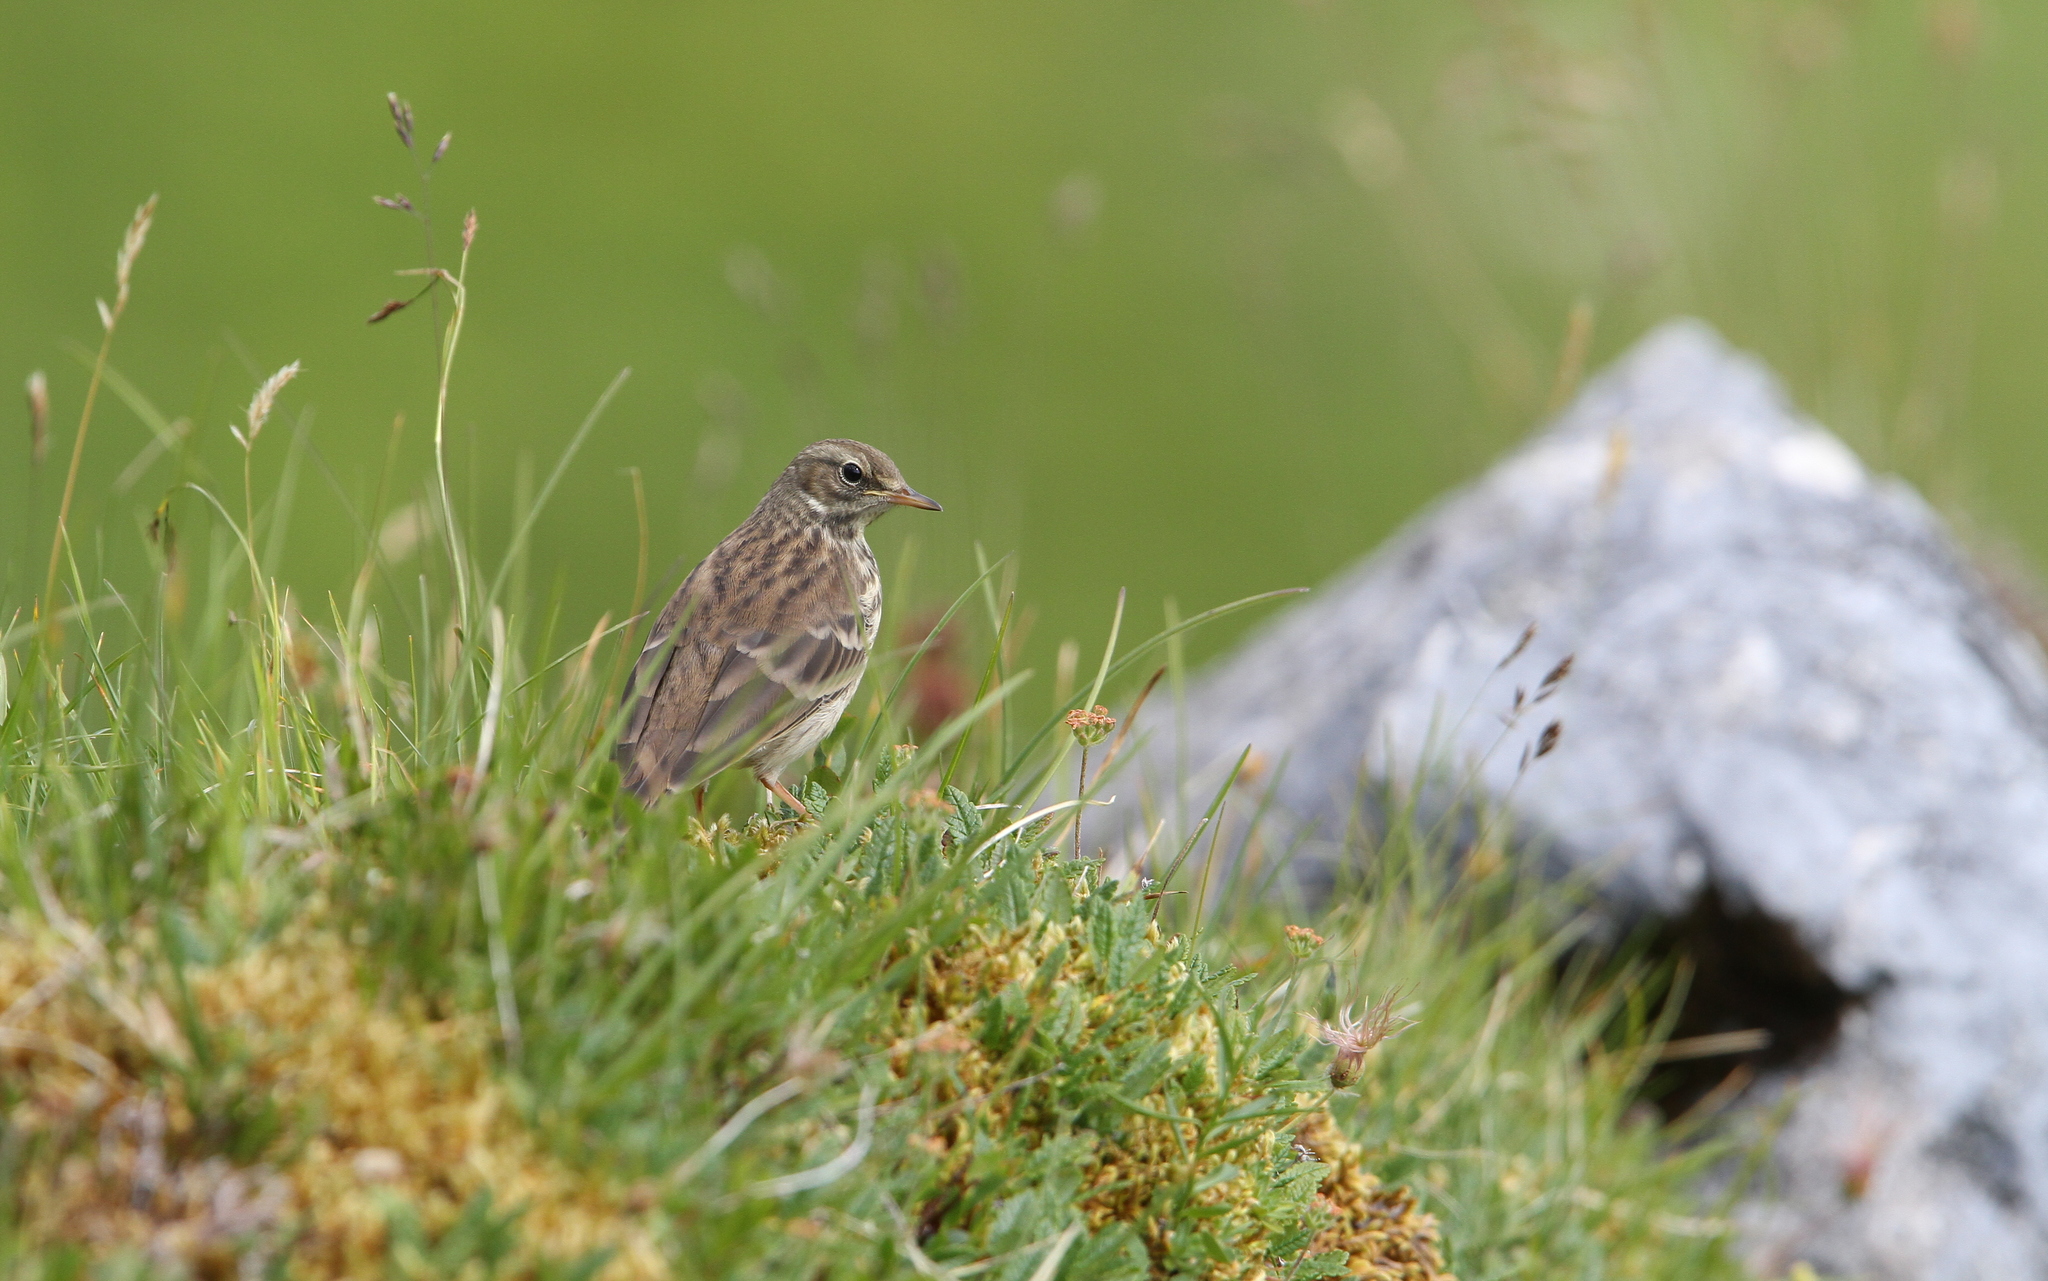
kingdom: Animalia
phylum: Chordata
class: Aves
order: Passeriformes
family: Motacillidae
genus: Anthus
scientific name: Anthus spinoletta
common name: Water pipit
